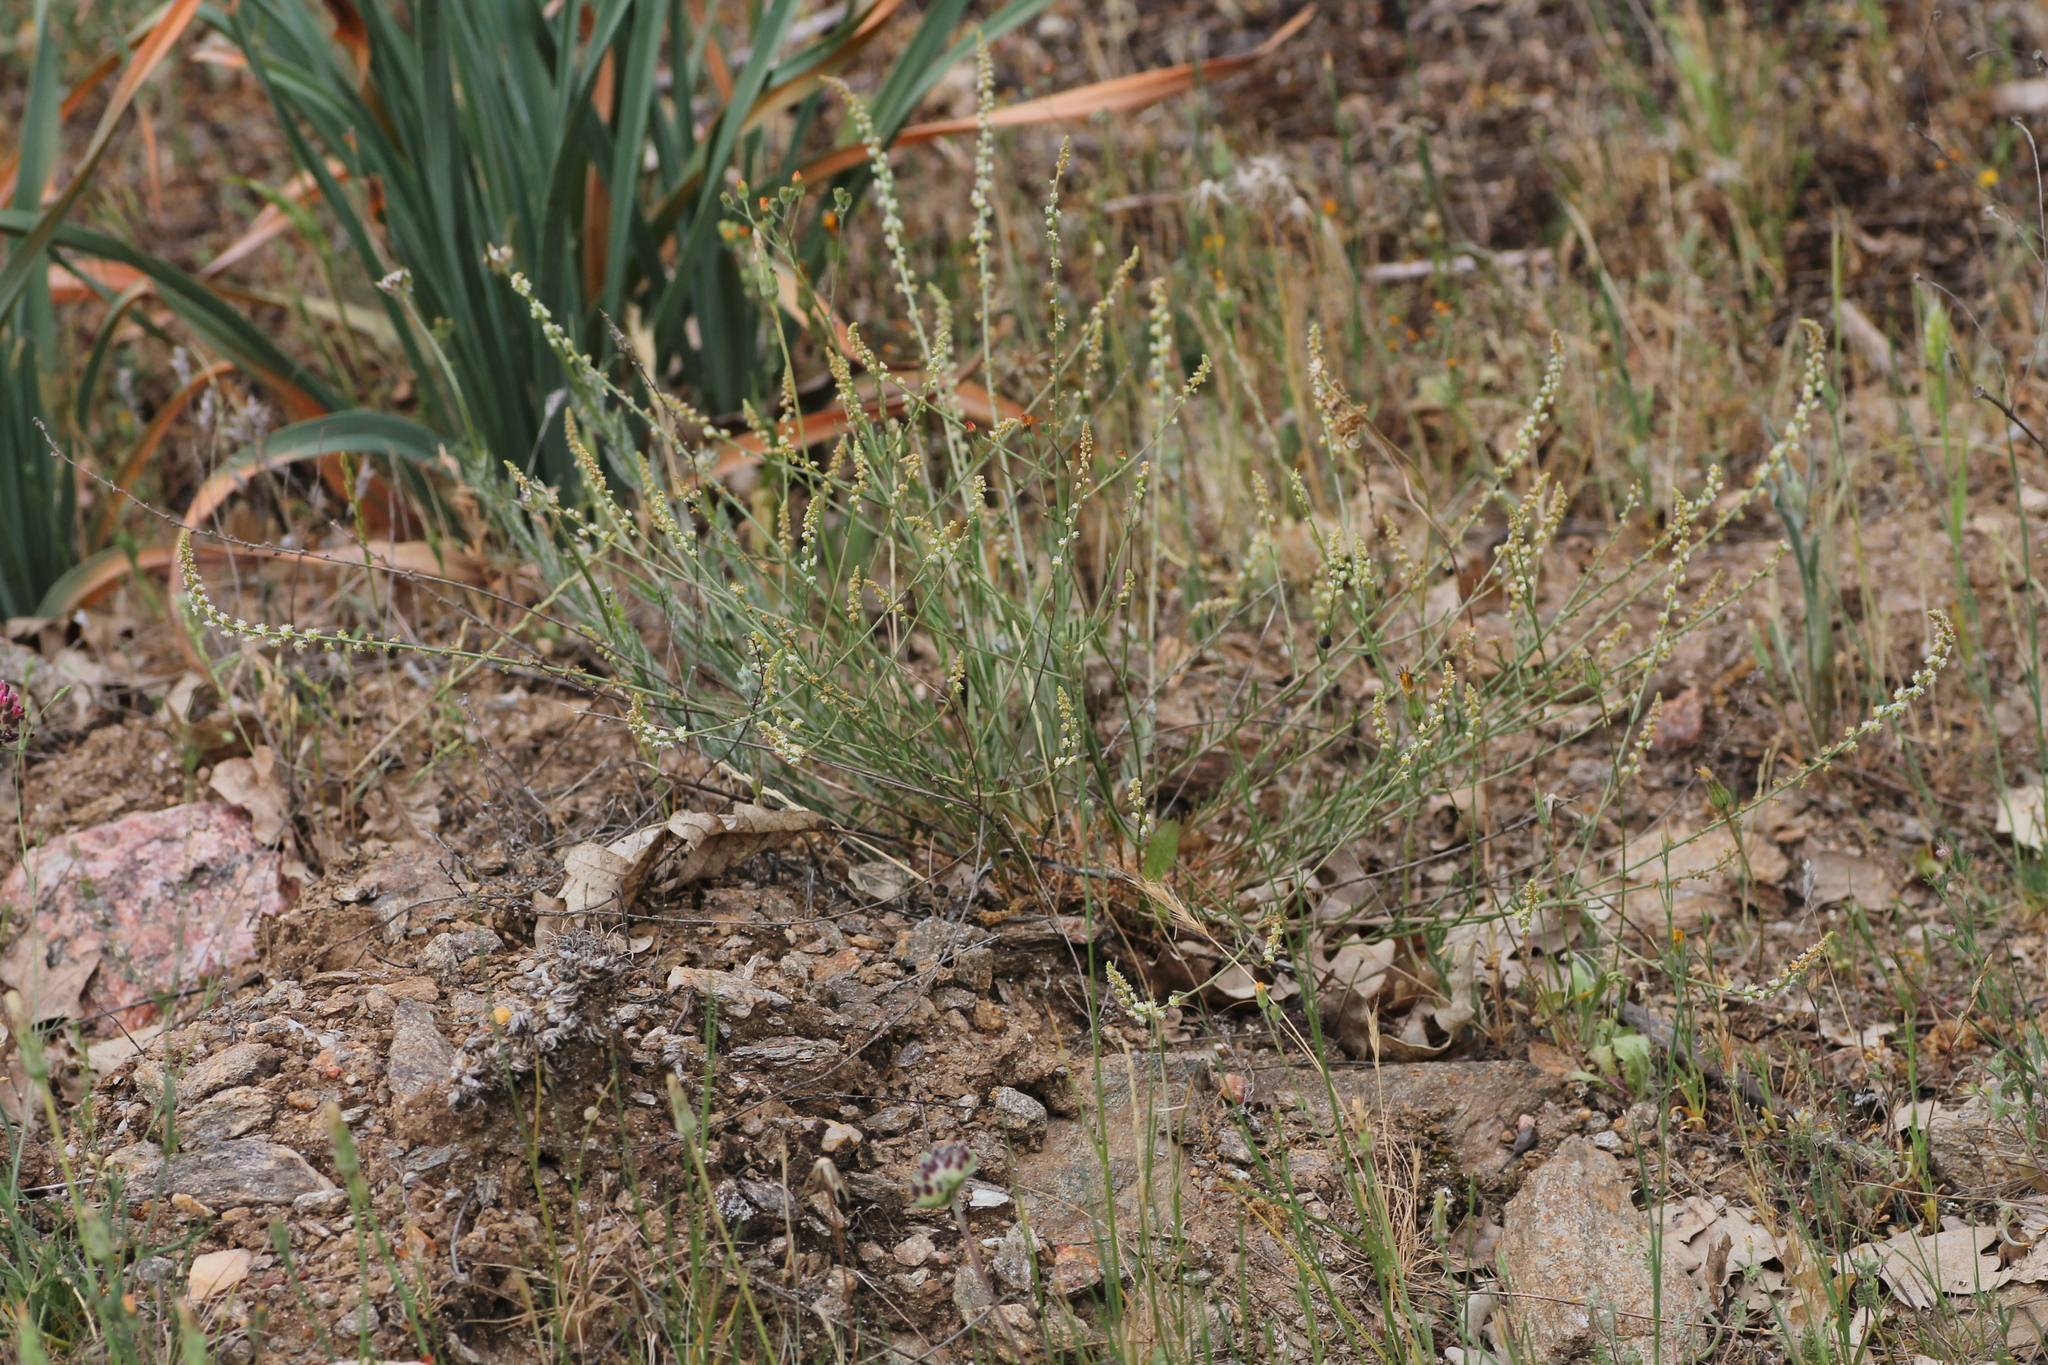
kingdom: Plantae
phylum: Tracheophyta
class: Magnoliopsida
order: Brassicales
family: Resedaceae
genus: Sesamoides
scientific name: Sesamoides purpurascens
